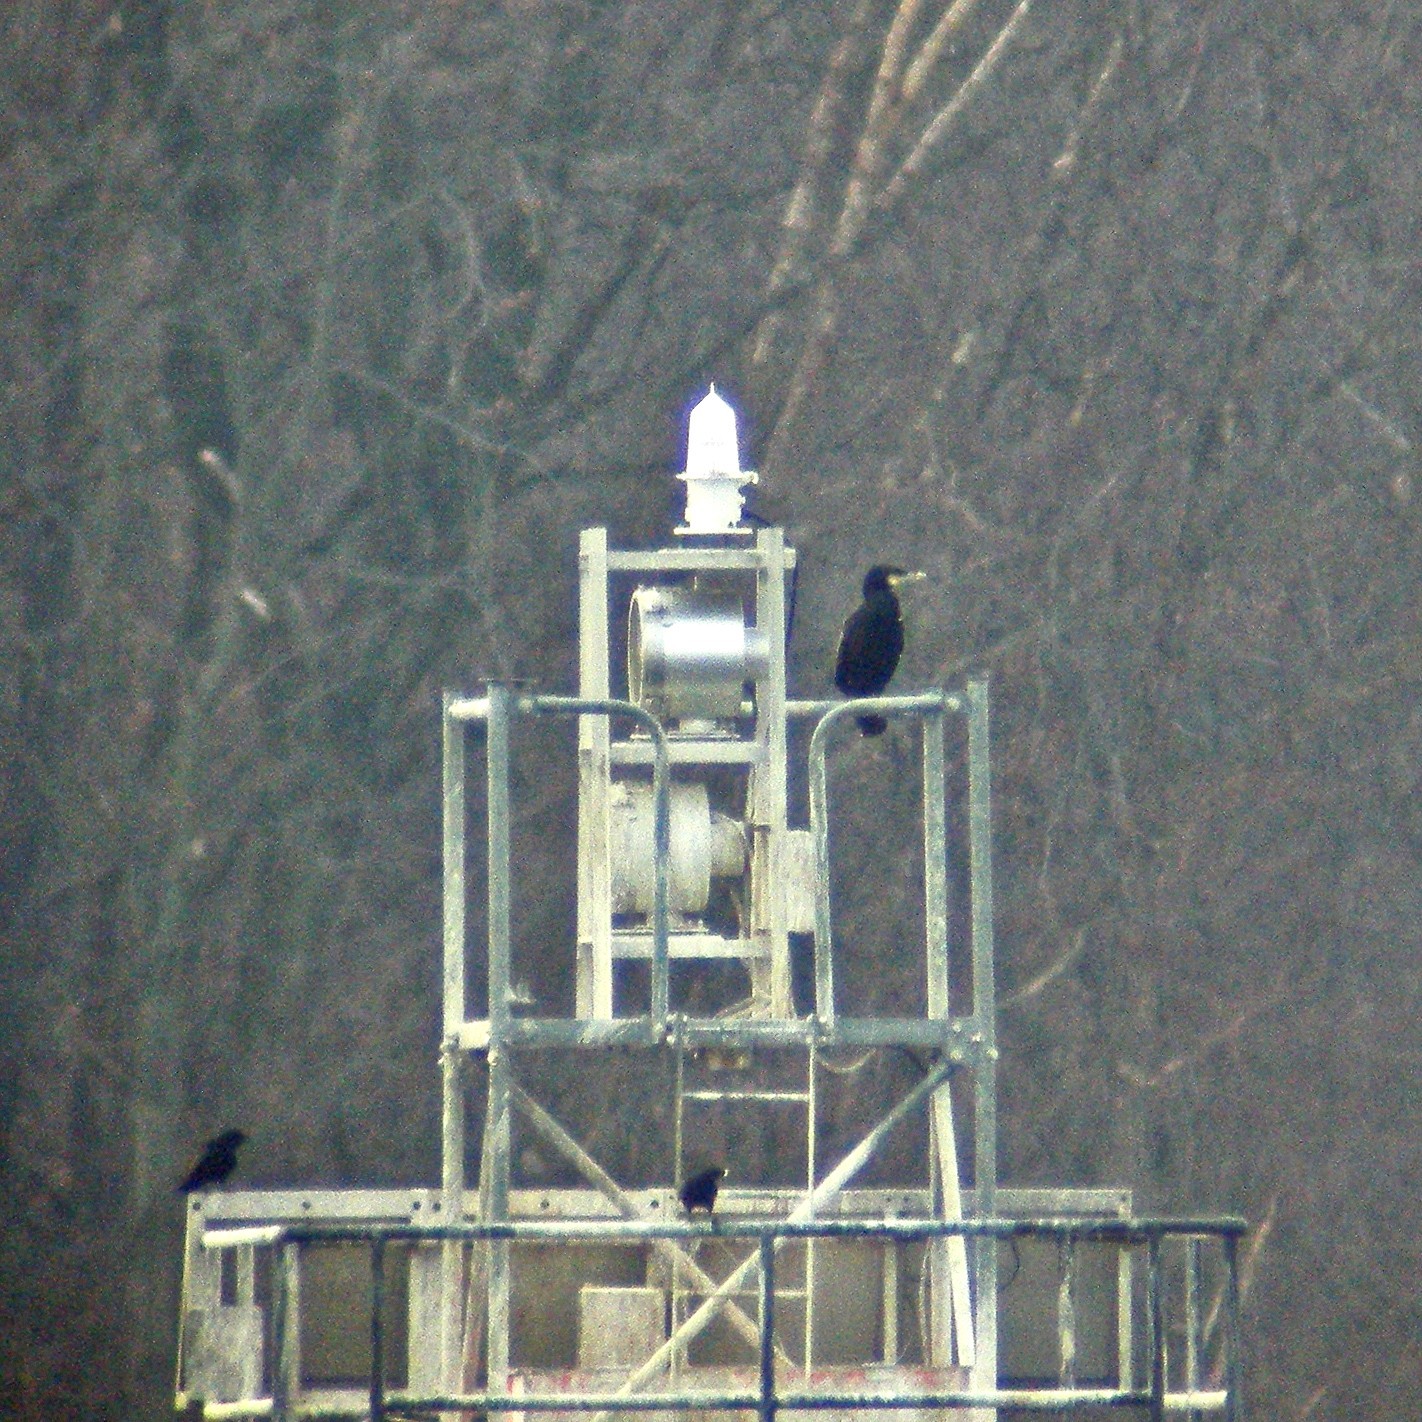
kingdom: Animalia
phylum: Chordata
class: Aves
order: Suliformes
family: Phalacrocoracidae
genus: Phalacrocorax
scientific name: Phalacrocorax carbo
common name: Great cormorant
